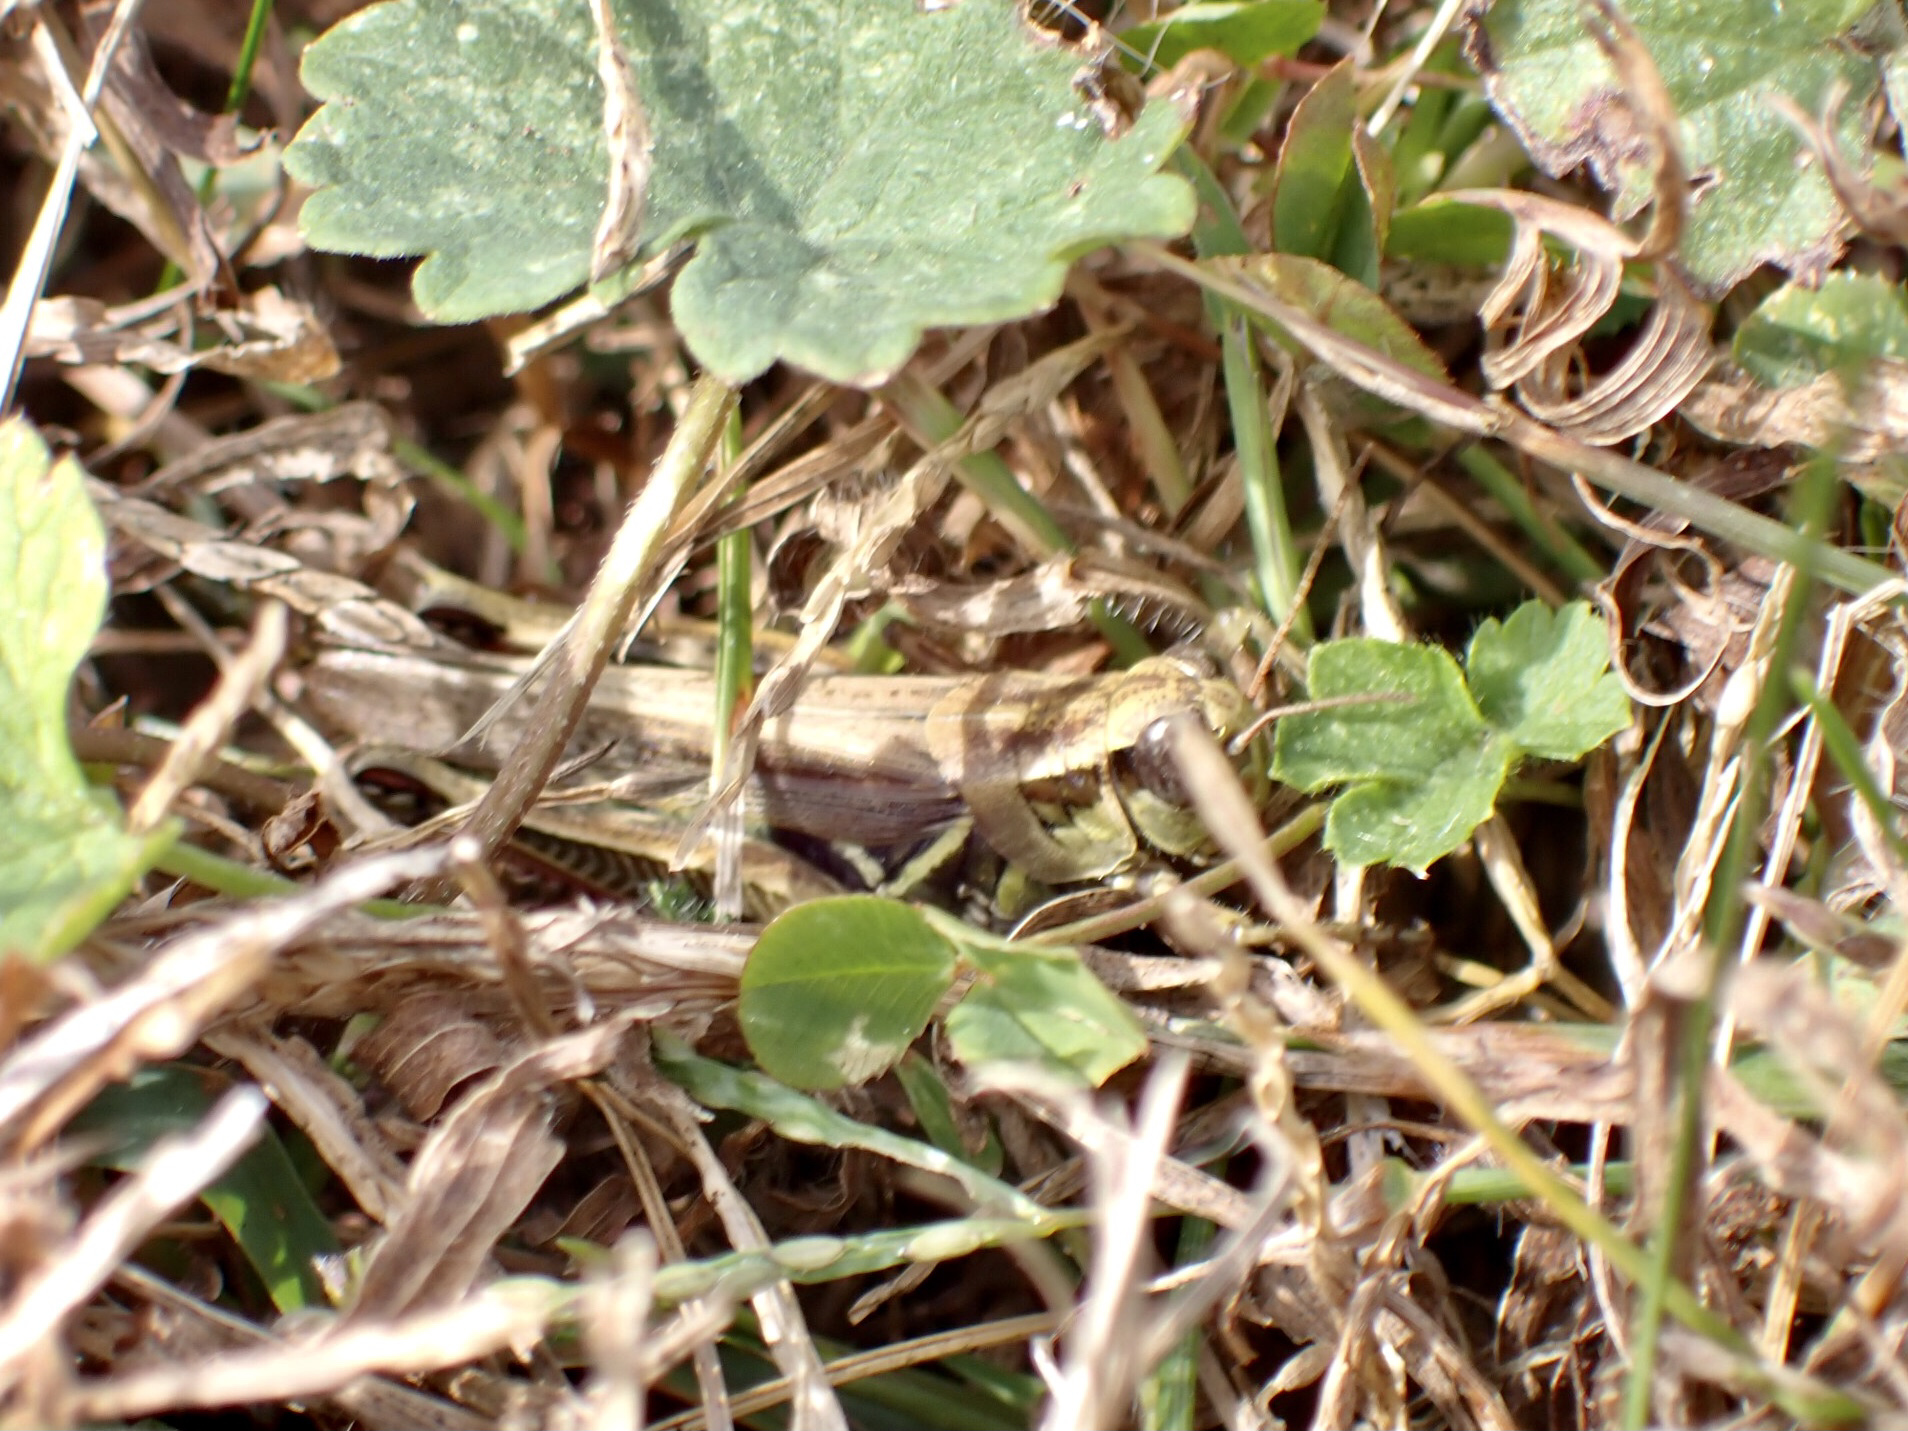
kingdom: Animalia
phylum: Arthropoda
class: Insecta
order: Orthoptera
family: Acrididae
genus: Melanoplus
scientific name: Melanoplus femurrubrum
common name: Red-legged grasshopper
